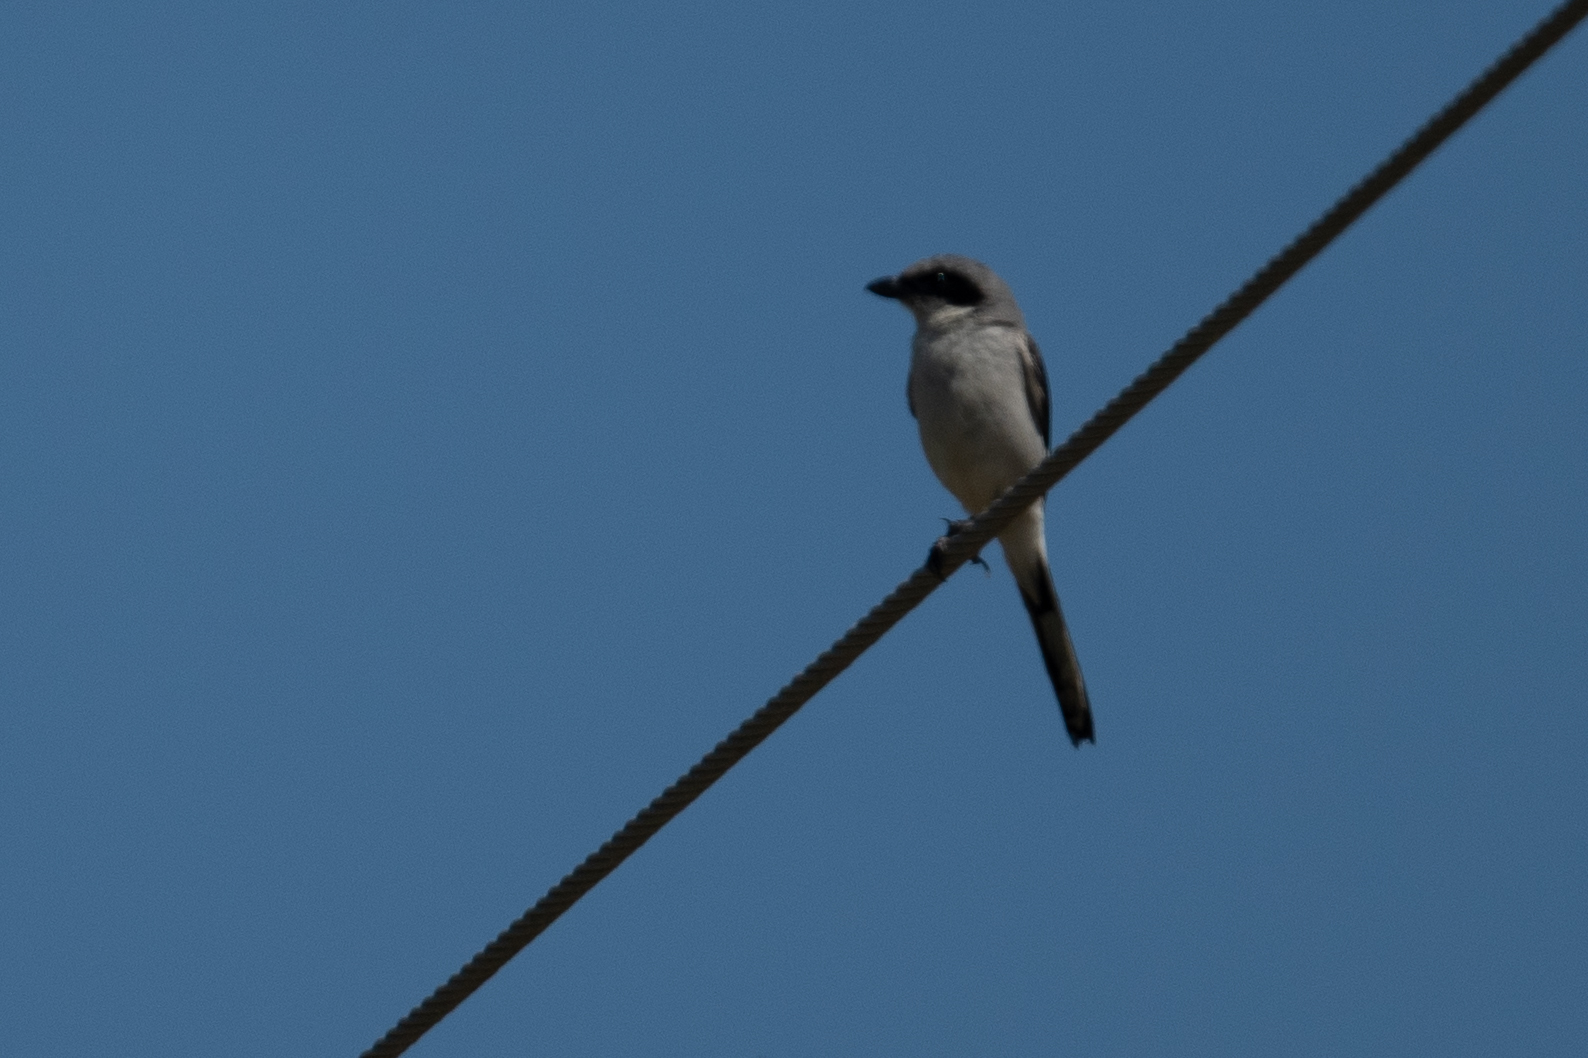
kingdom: Animalia
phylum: Chordata
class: Aves
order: Passeriformes
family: Laniidae
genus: Lanius
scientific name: Lanius ludovicianus
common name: Loggerhead shrike
